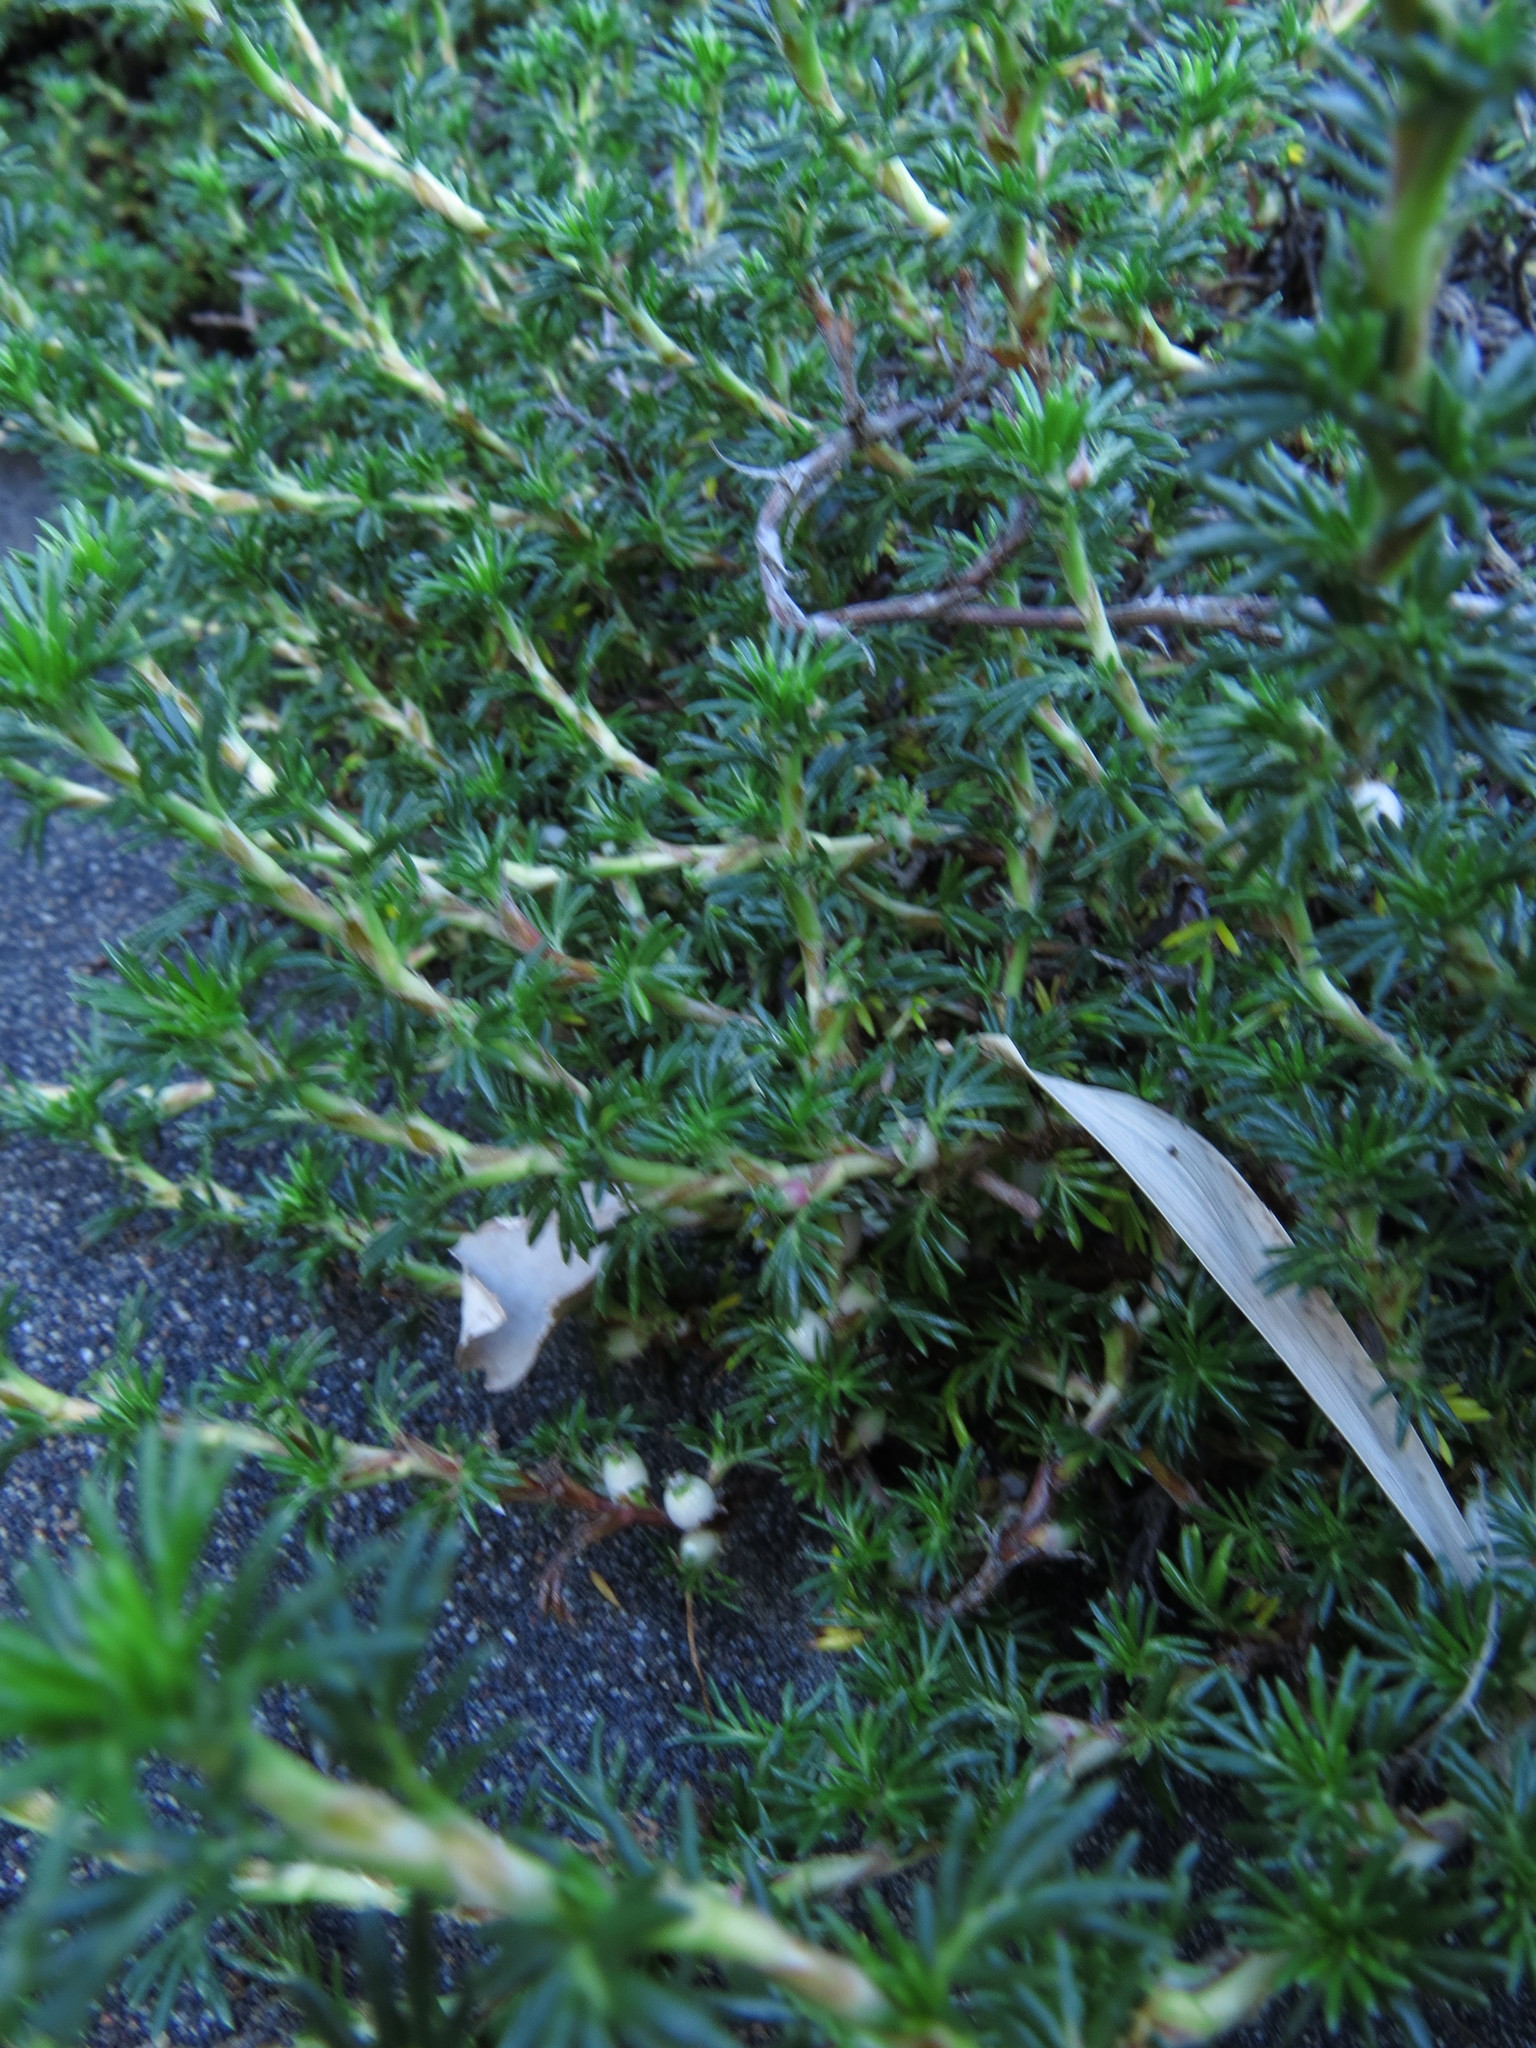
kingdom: Plantae
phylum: Tracheophyta
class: Magnoliopsida
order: Rosales
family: Rosaceae
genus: Margyricarpus
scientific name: Margyricarpus pinnatus
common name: Pearlfruit
